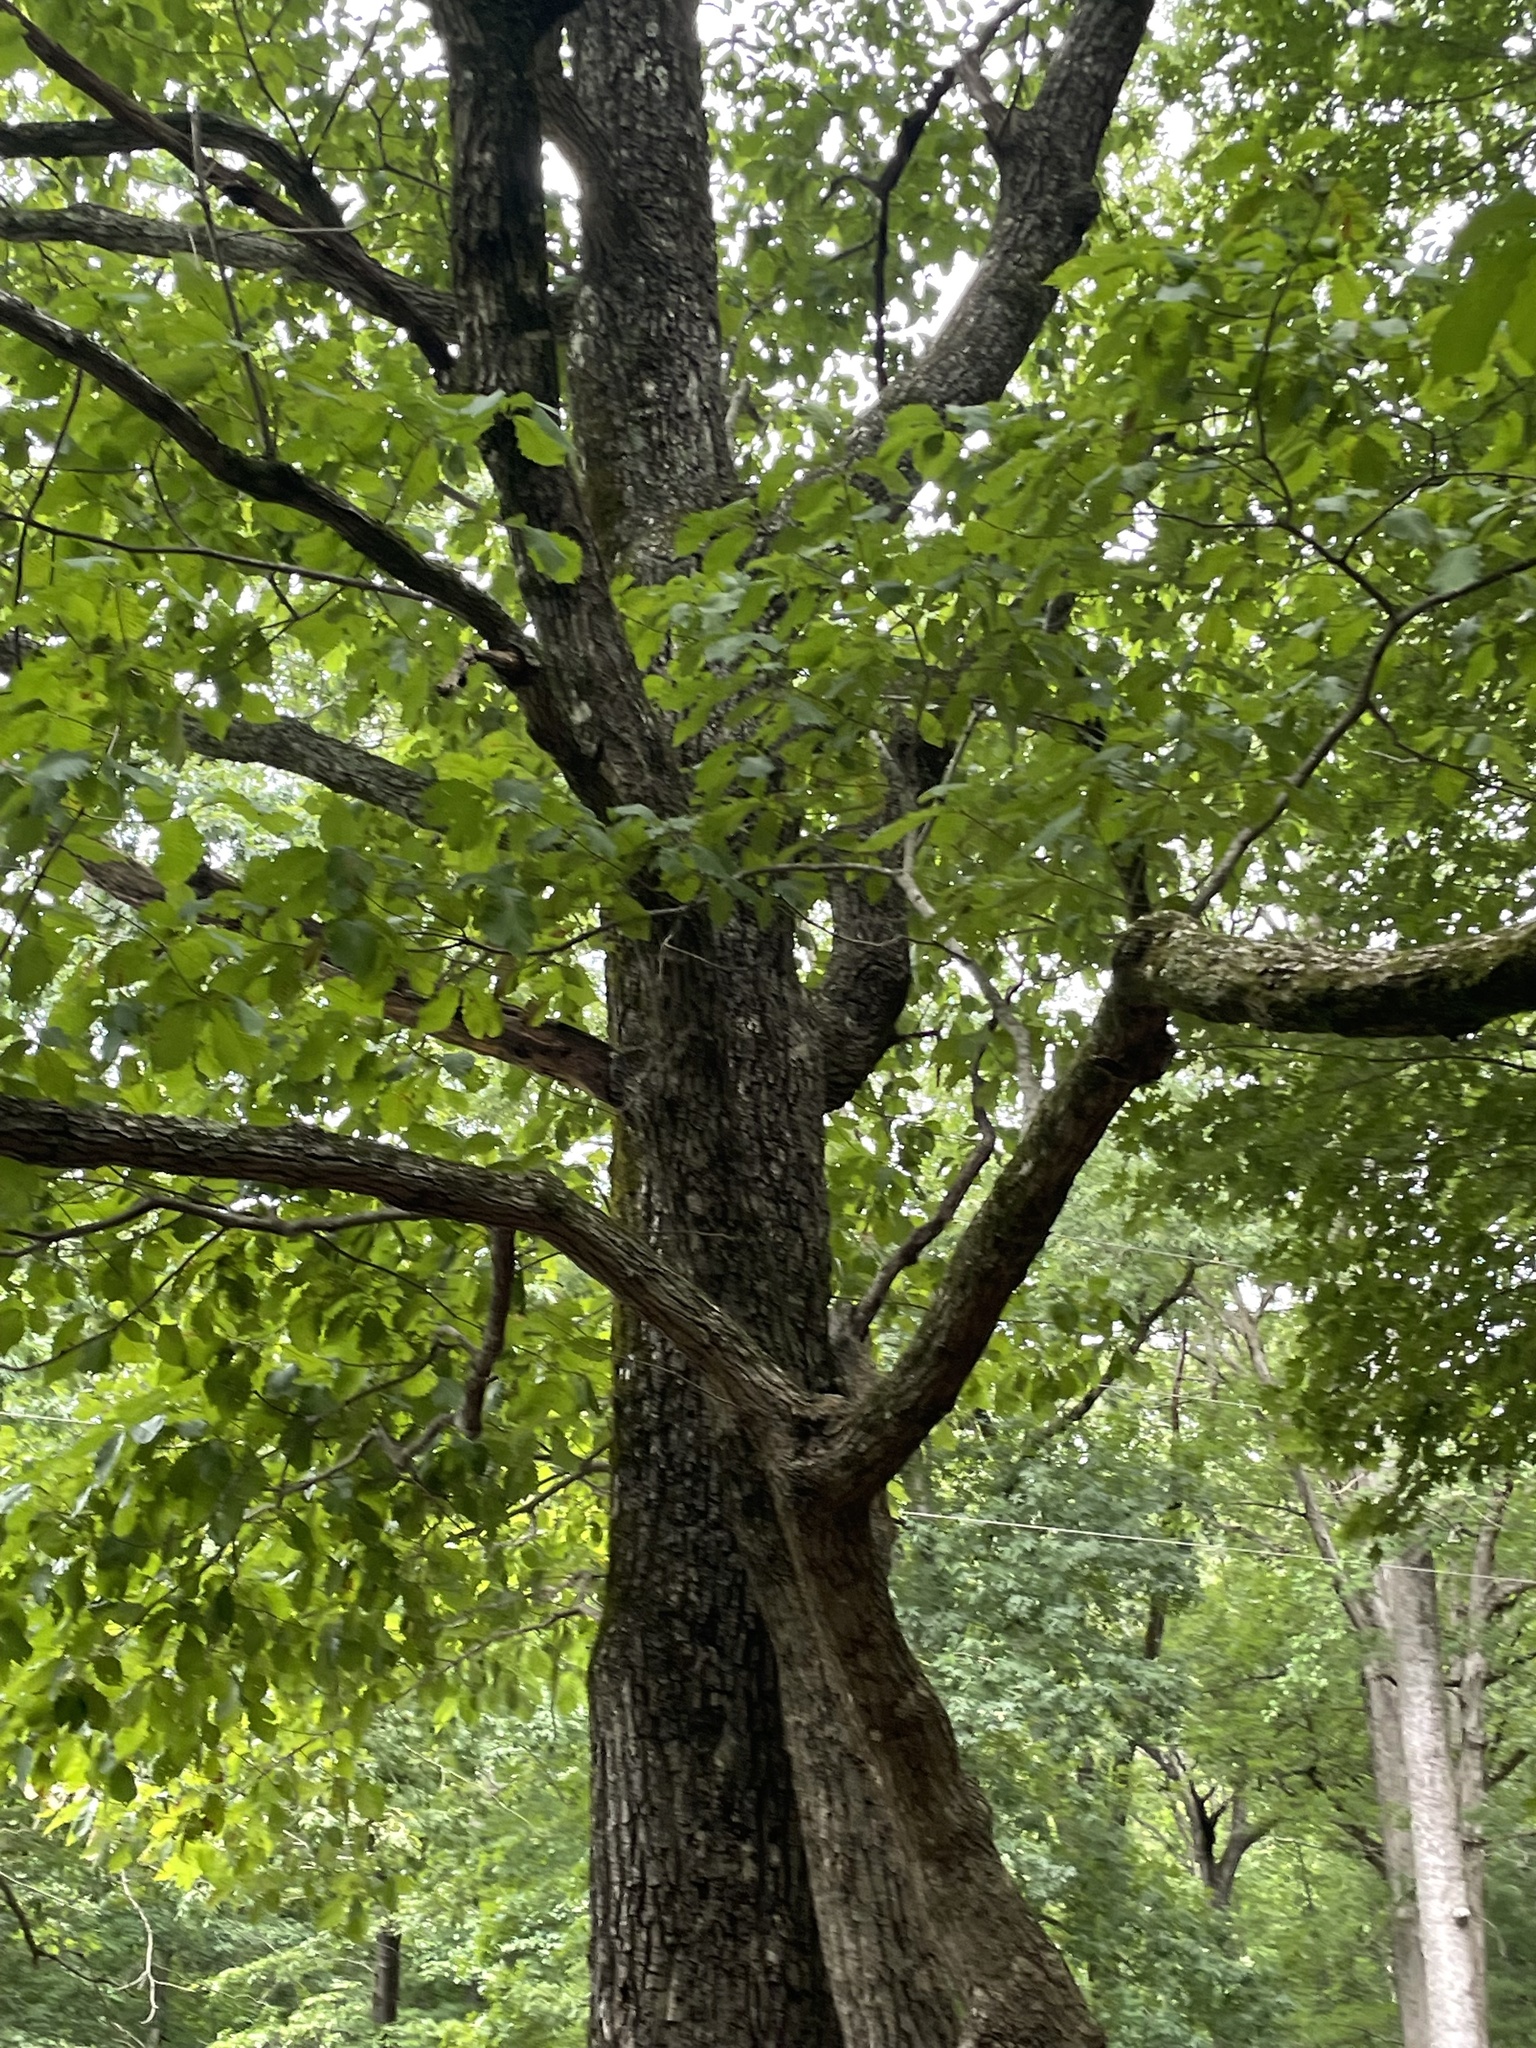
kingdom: Plantae
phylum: Tracheophyta
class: Magnoliopsida
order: Fagales
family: Fagaceae
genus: Quercus
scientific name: Quercus montana
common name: Chestnut oak
